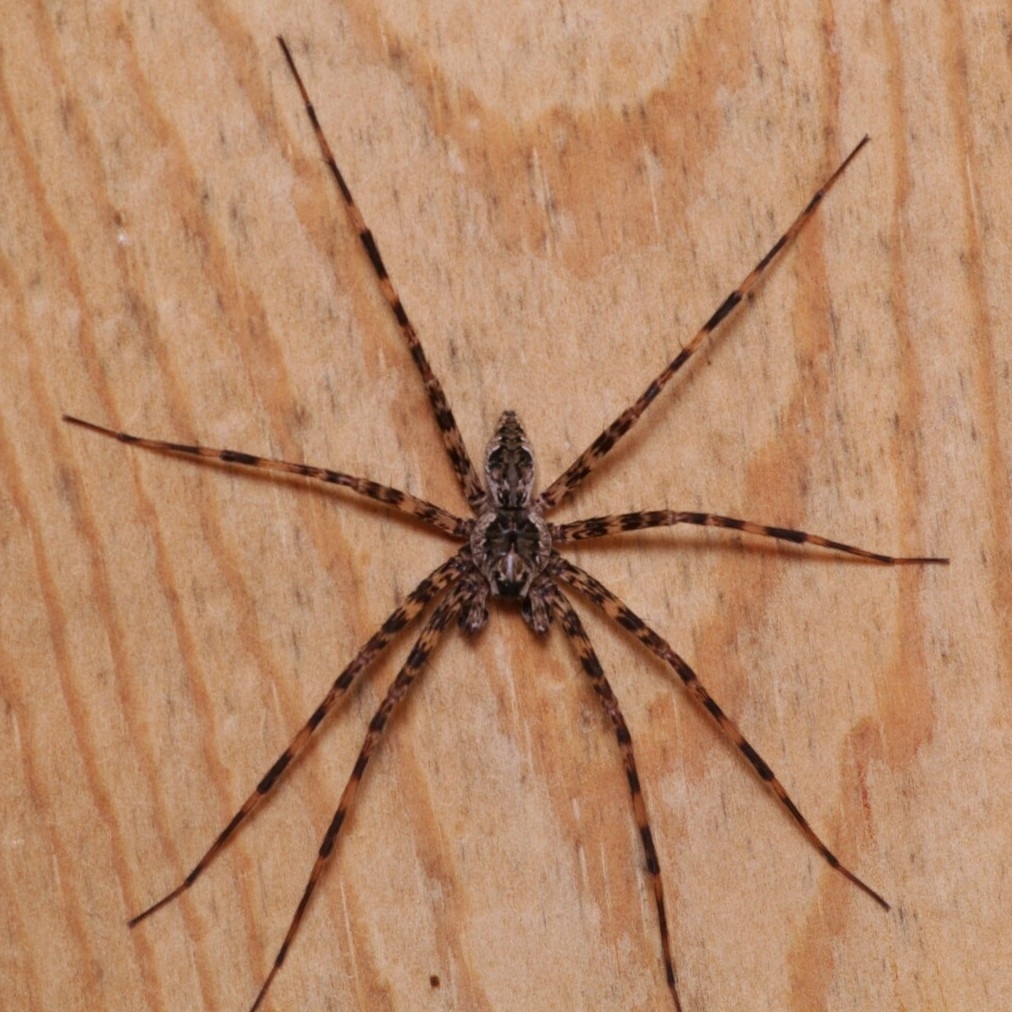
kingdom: Animalia
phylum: Arthropoda
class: Arachnida
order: Araneae
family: Pisauridae
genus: Dolomedes
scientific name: Dolomedes tenebrosus
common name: Dark fishing spider
